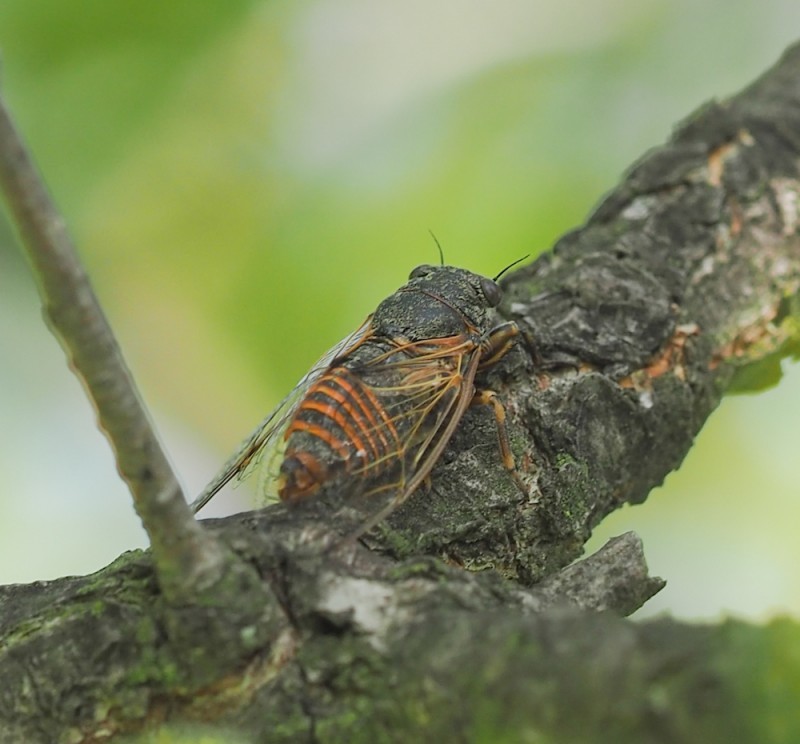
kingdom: Animalia
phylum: Arthropoda
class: Insecta
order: Hemiptera
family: Cicadidae
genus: Oligoglena
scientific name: Oligoglena tibialis
